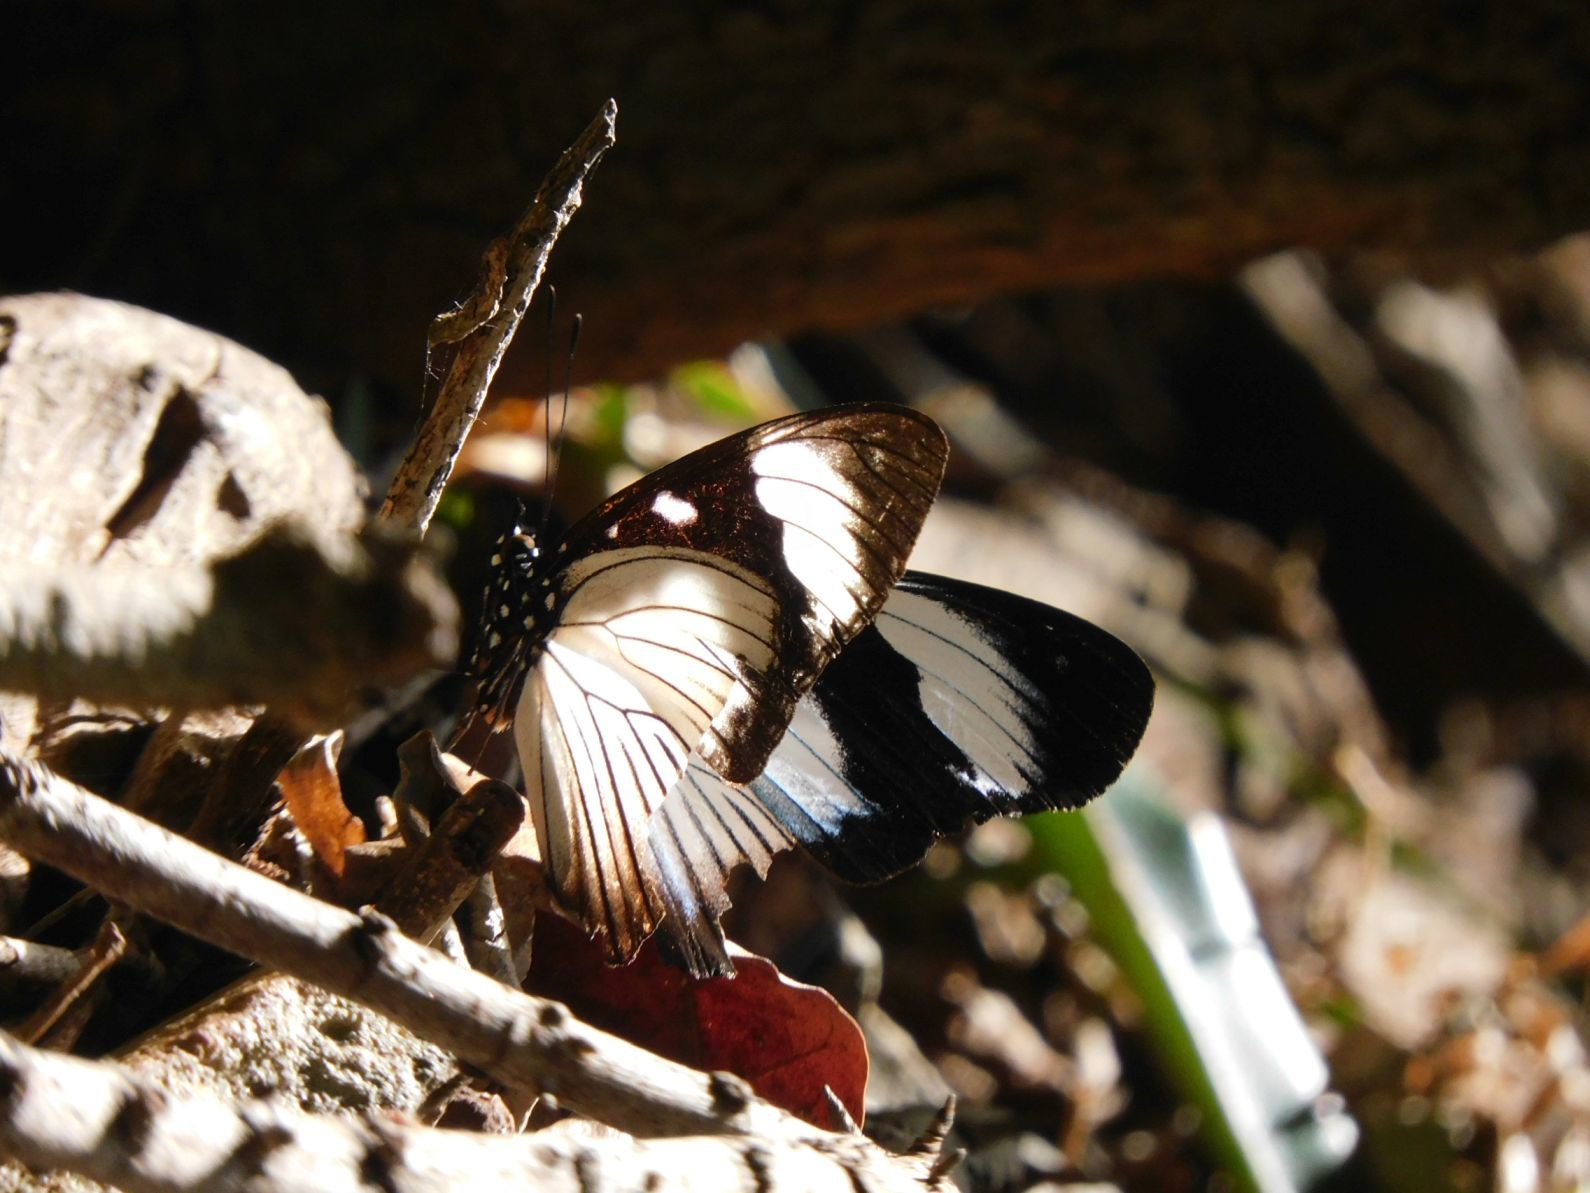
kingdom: Animalia
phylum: Arthropoda
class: Insecta
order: Lepidoptera
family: Nymphalidae
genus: Hypolimnas
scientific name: Hypolimnas dubius
